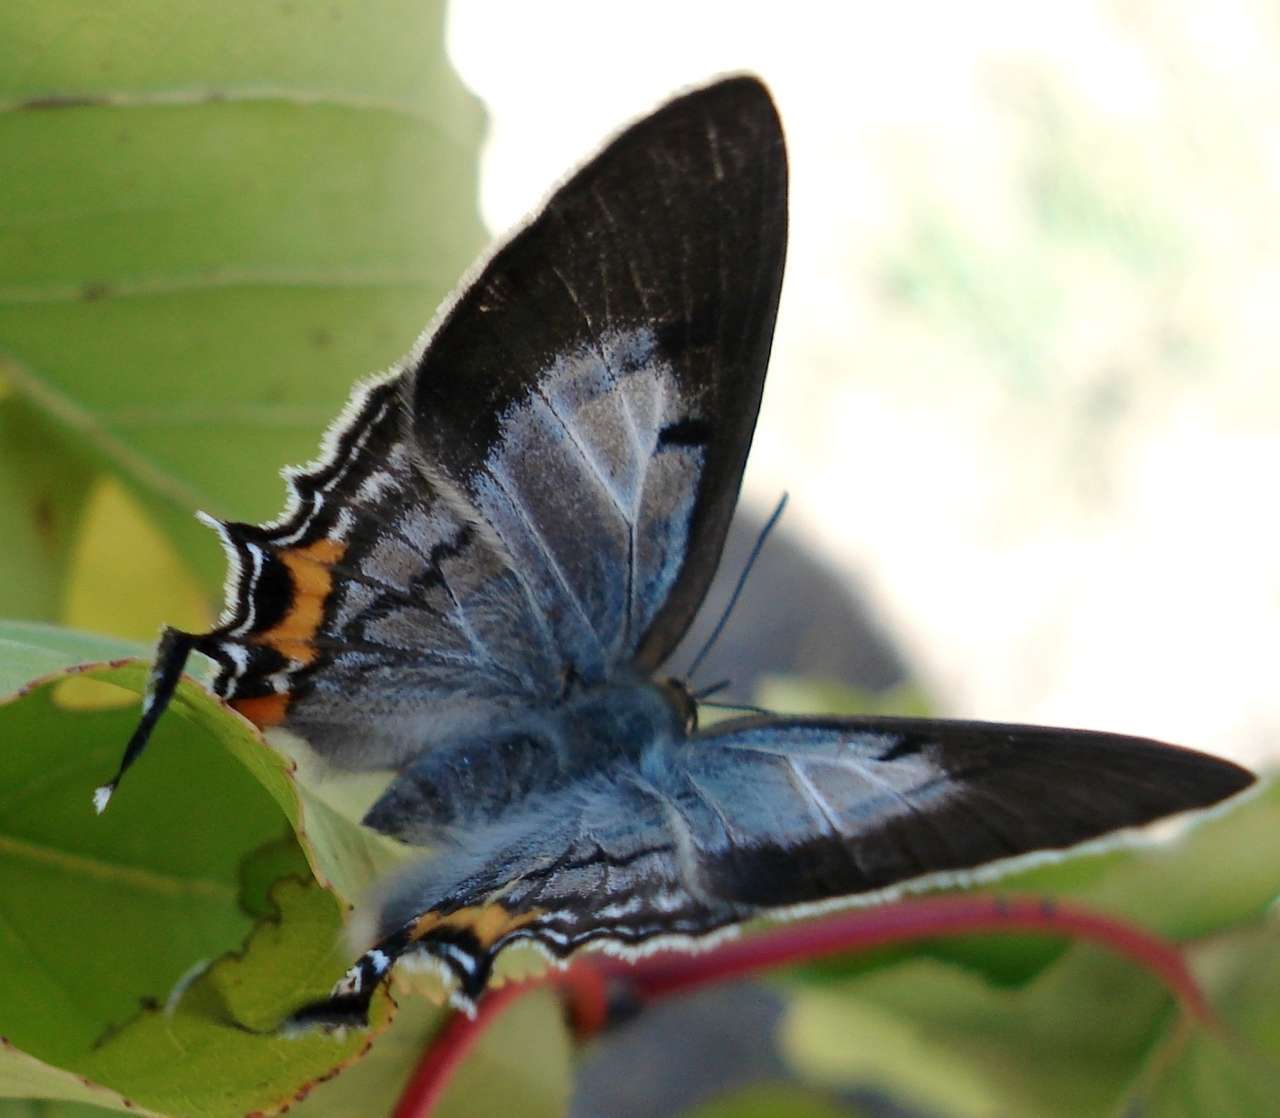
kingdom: Animalia
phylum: Arthropoda
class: Insecta
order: Lepidoptera
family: Lycaenidae
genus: Jalmenus
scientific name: Jalmenus evagoras
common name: Common imperial blue
